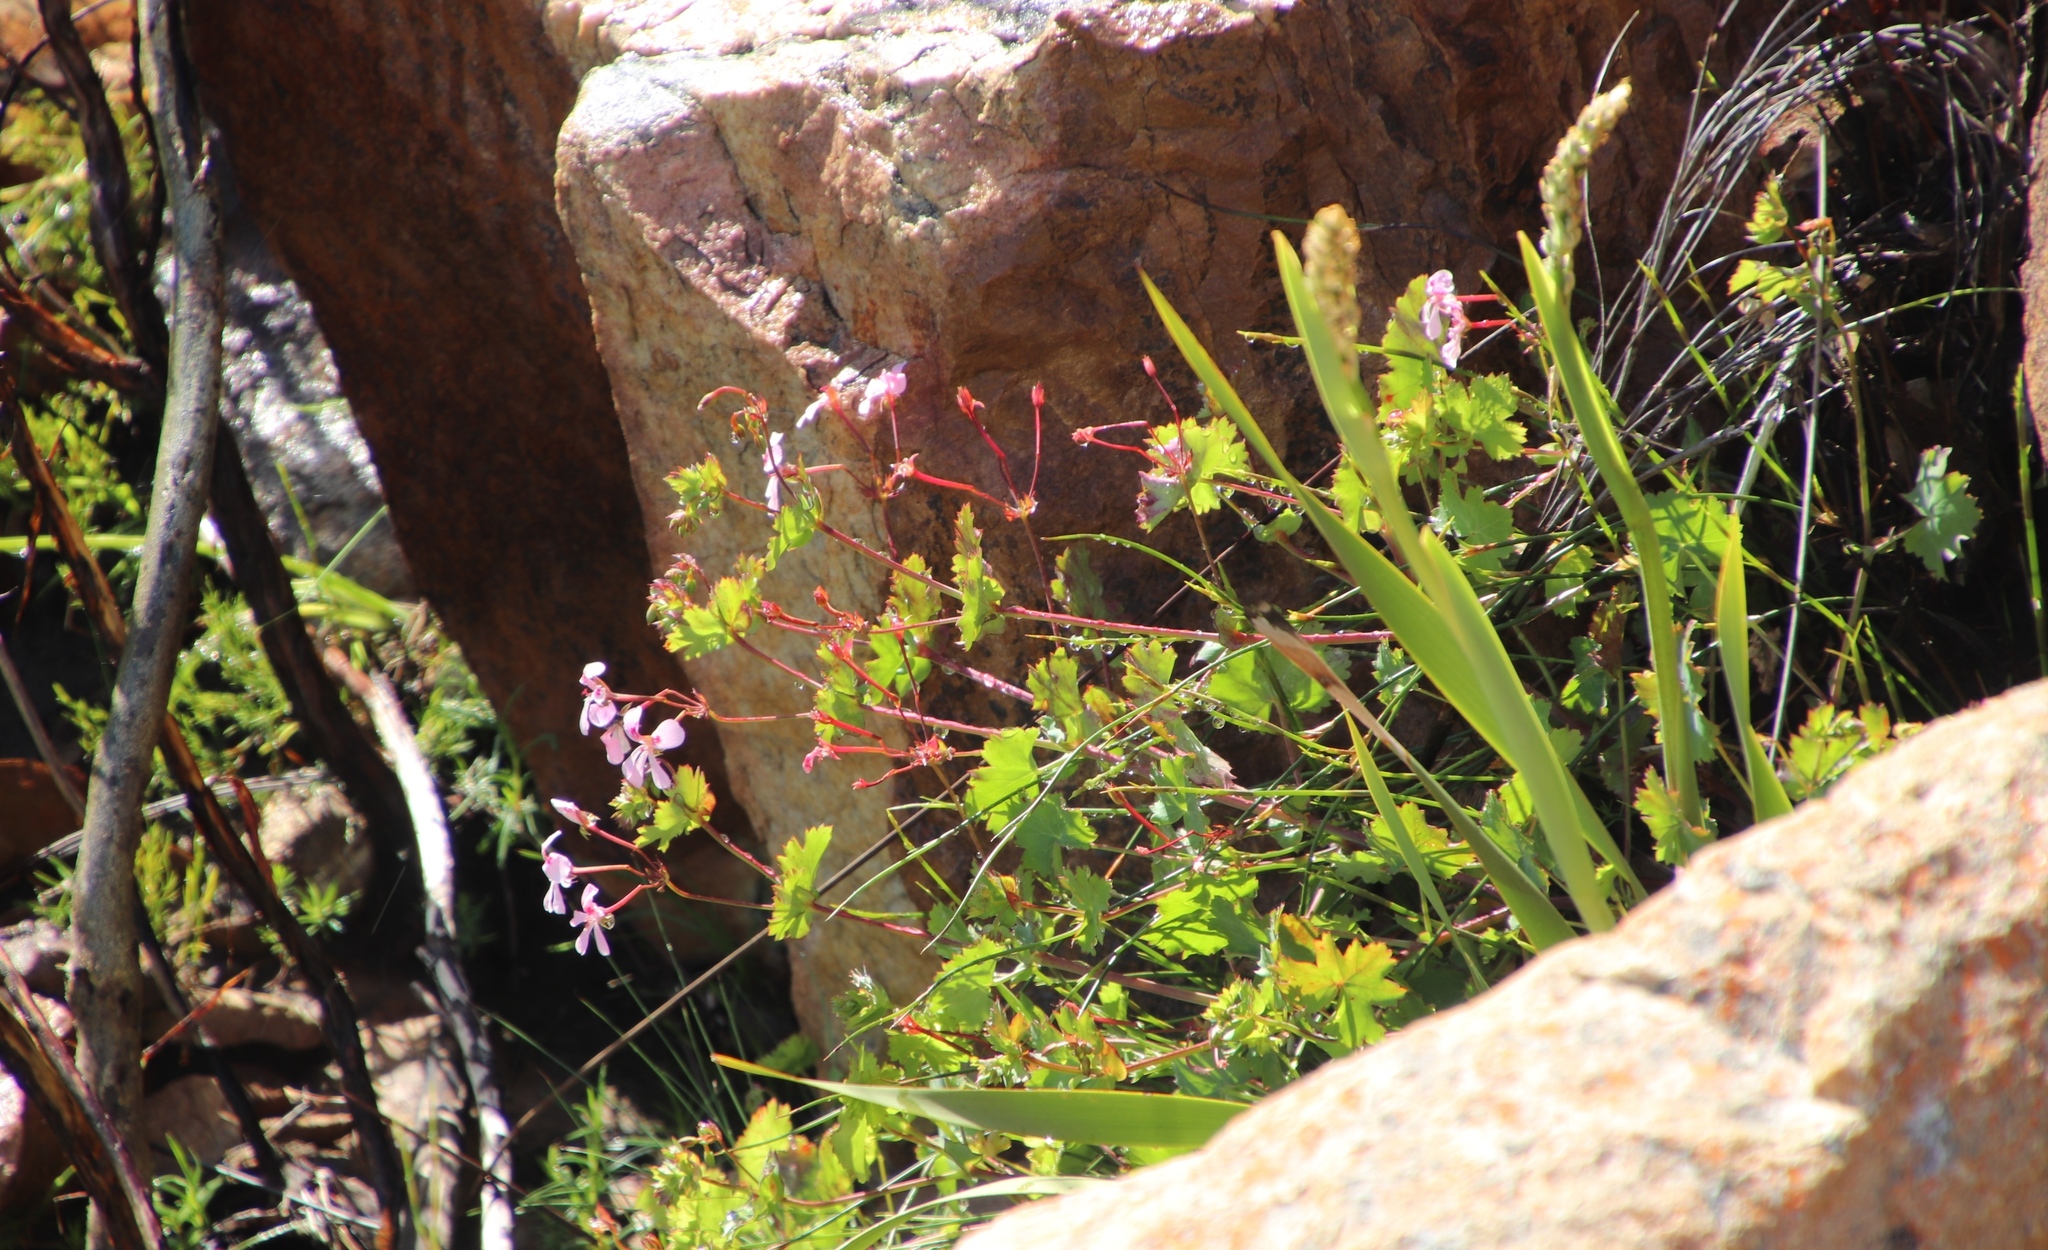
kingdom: Plantae
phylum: Tracheophyta
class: Magnoliopsida
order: Geraniales
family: Geraniaceae
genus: Pelargonium
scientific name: Pelargonium patulum
